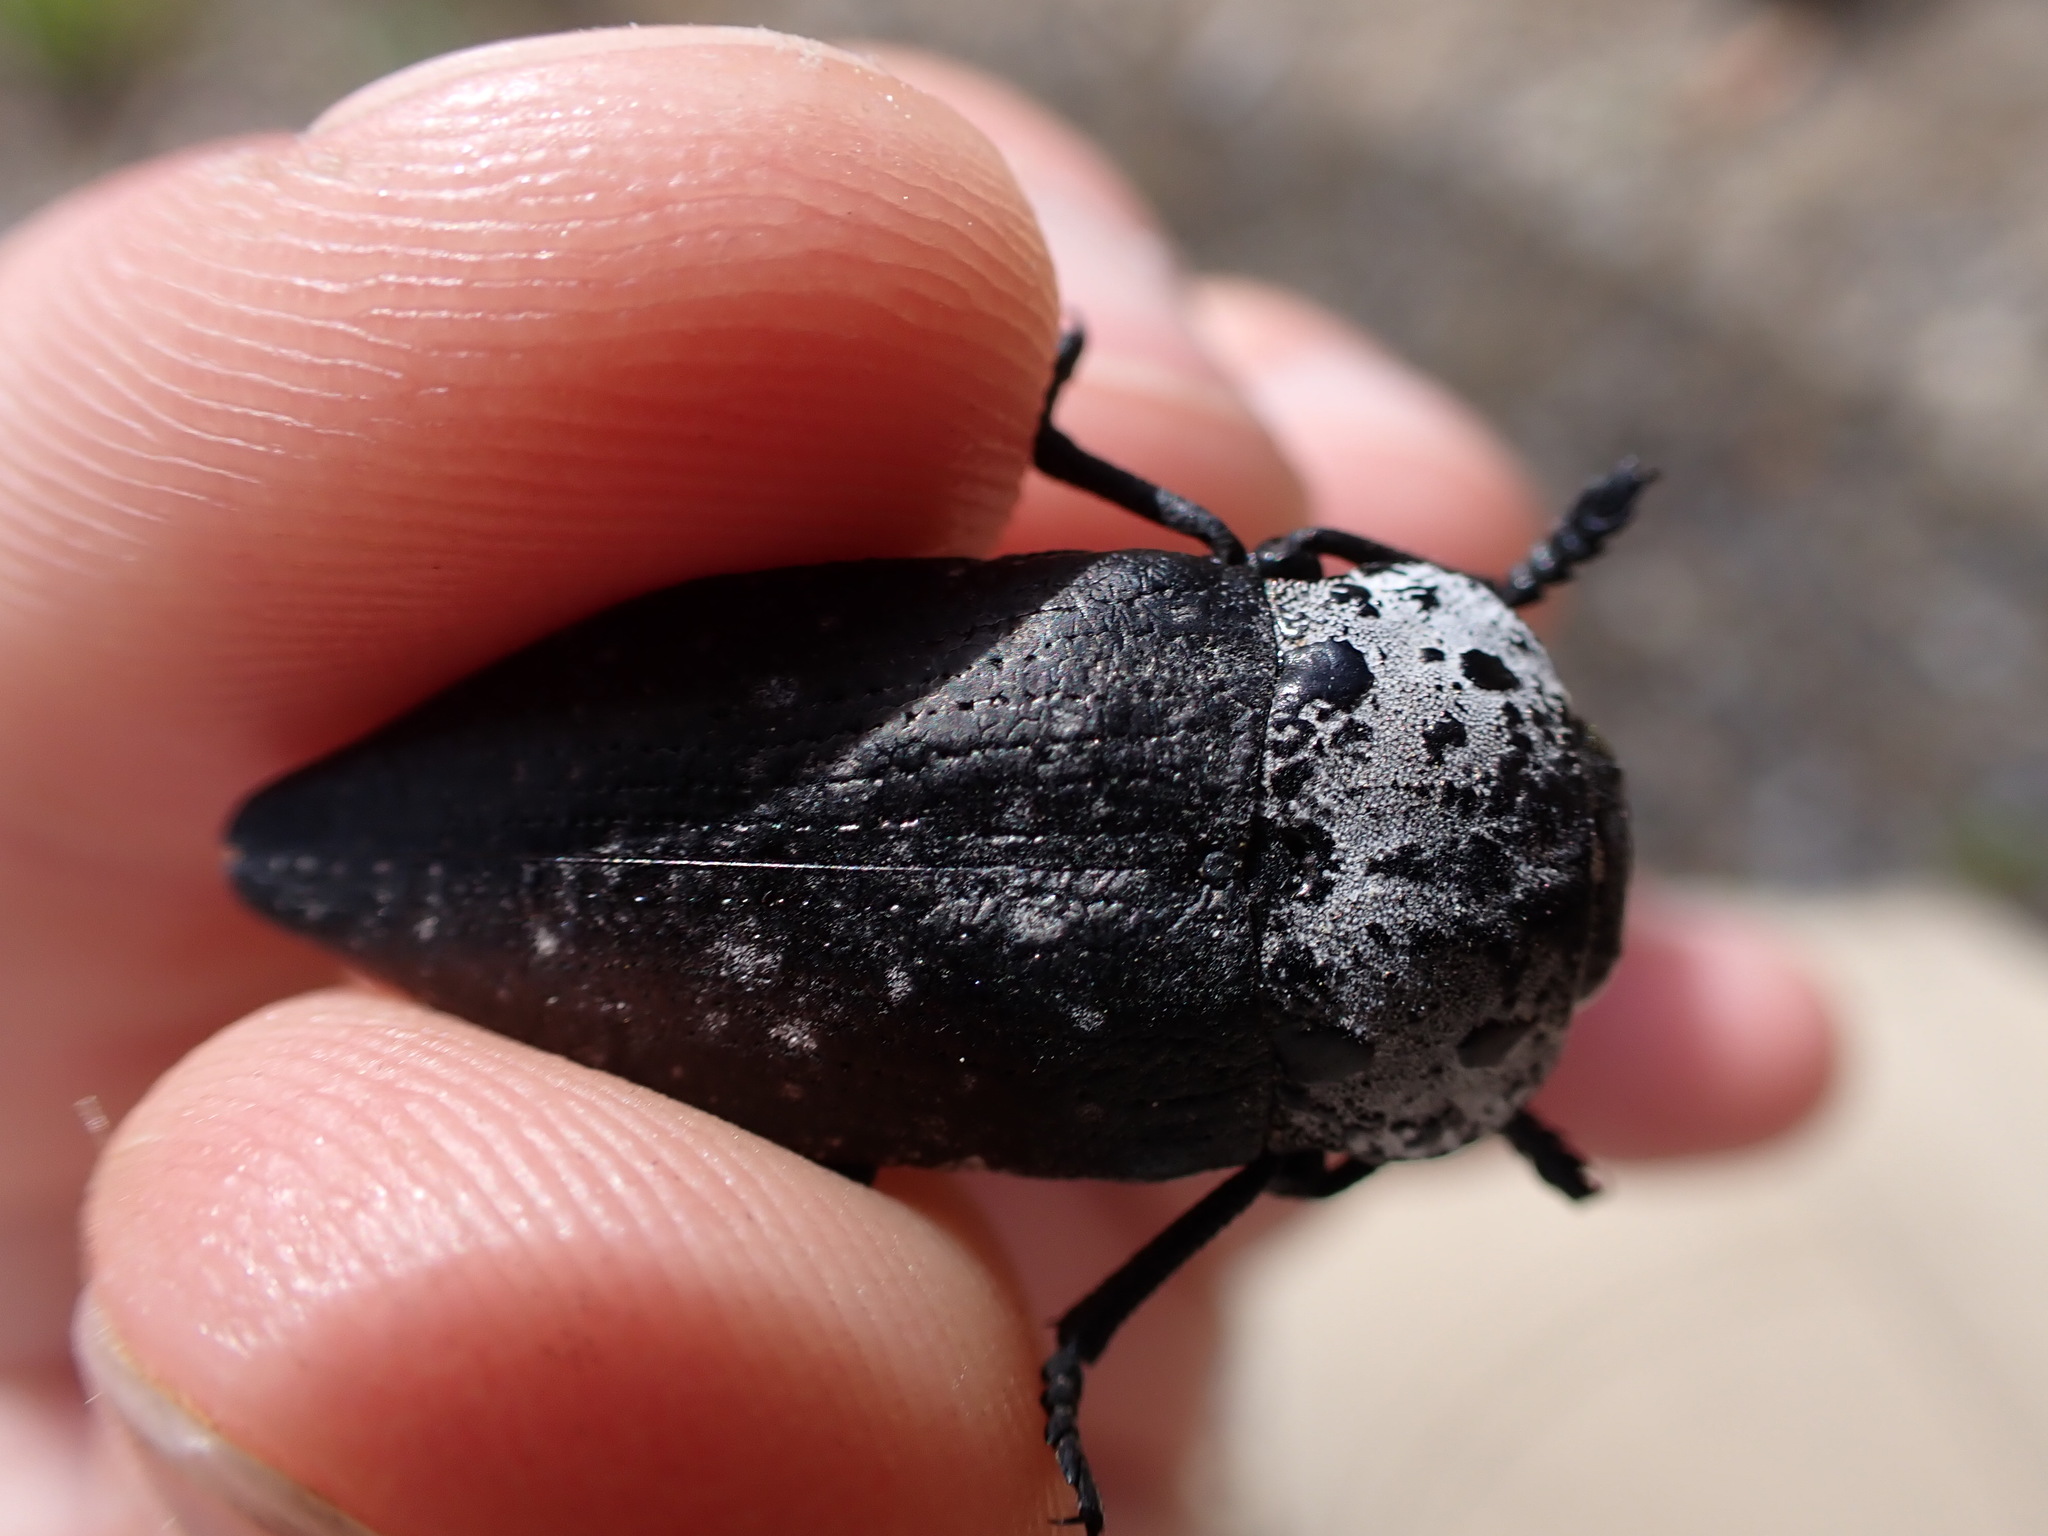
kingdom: Animalia
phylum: Arthropoda
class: Insecta
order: Coleoptera
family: Buprestidae
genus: Capnodis
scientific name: Capnodis tenebrionis
